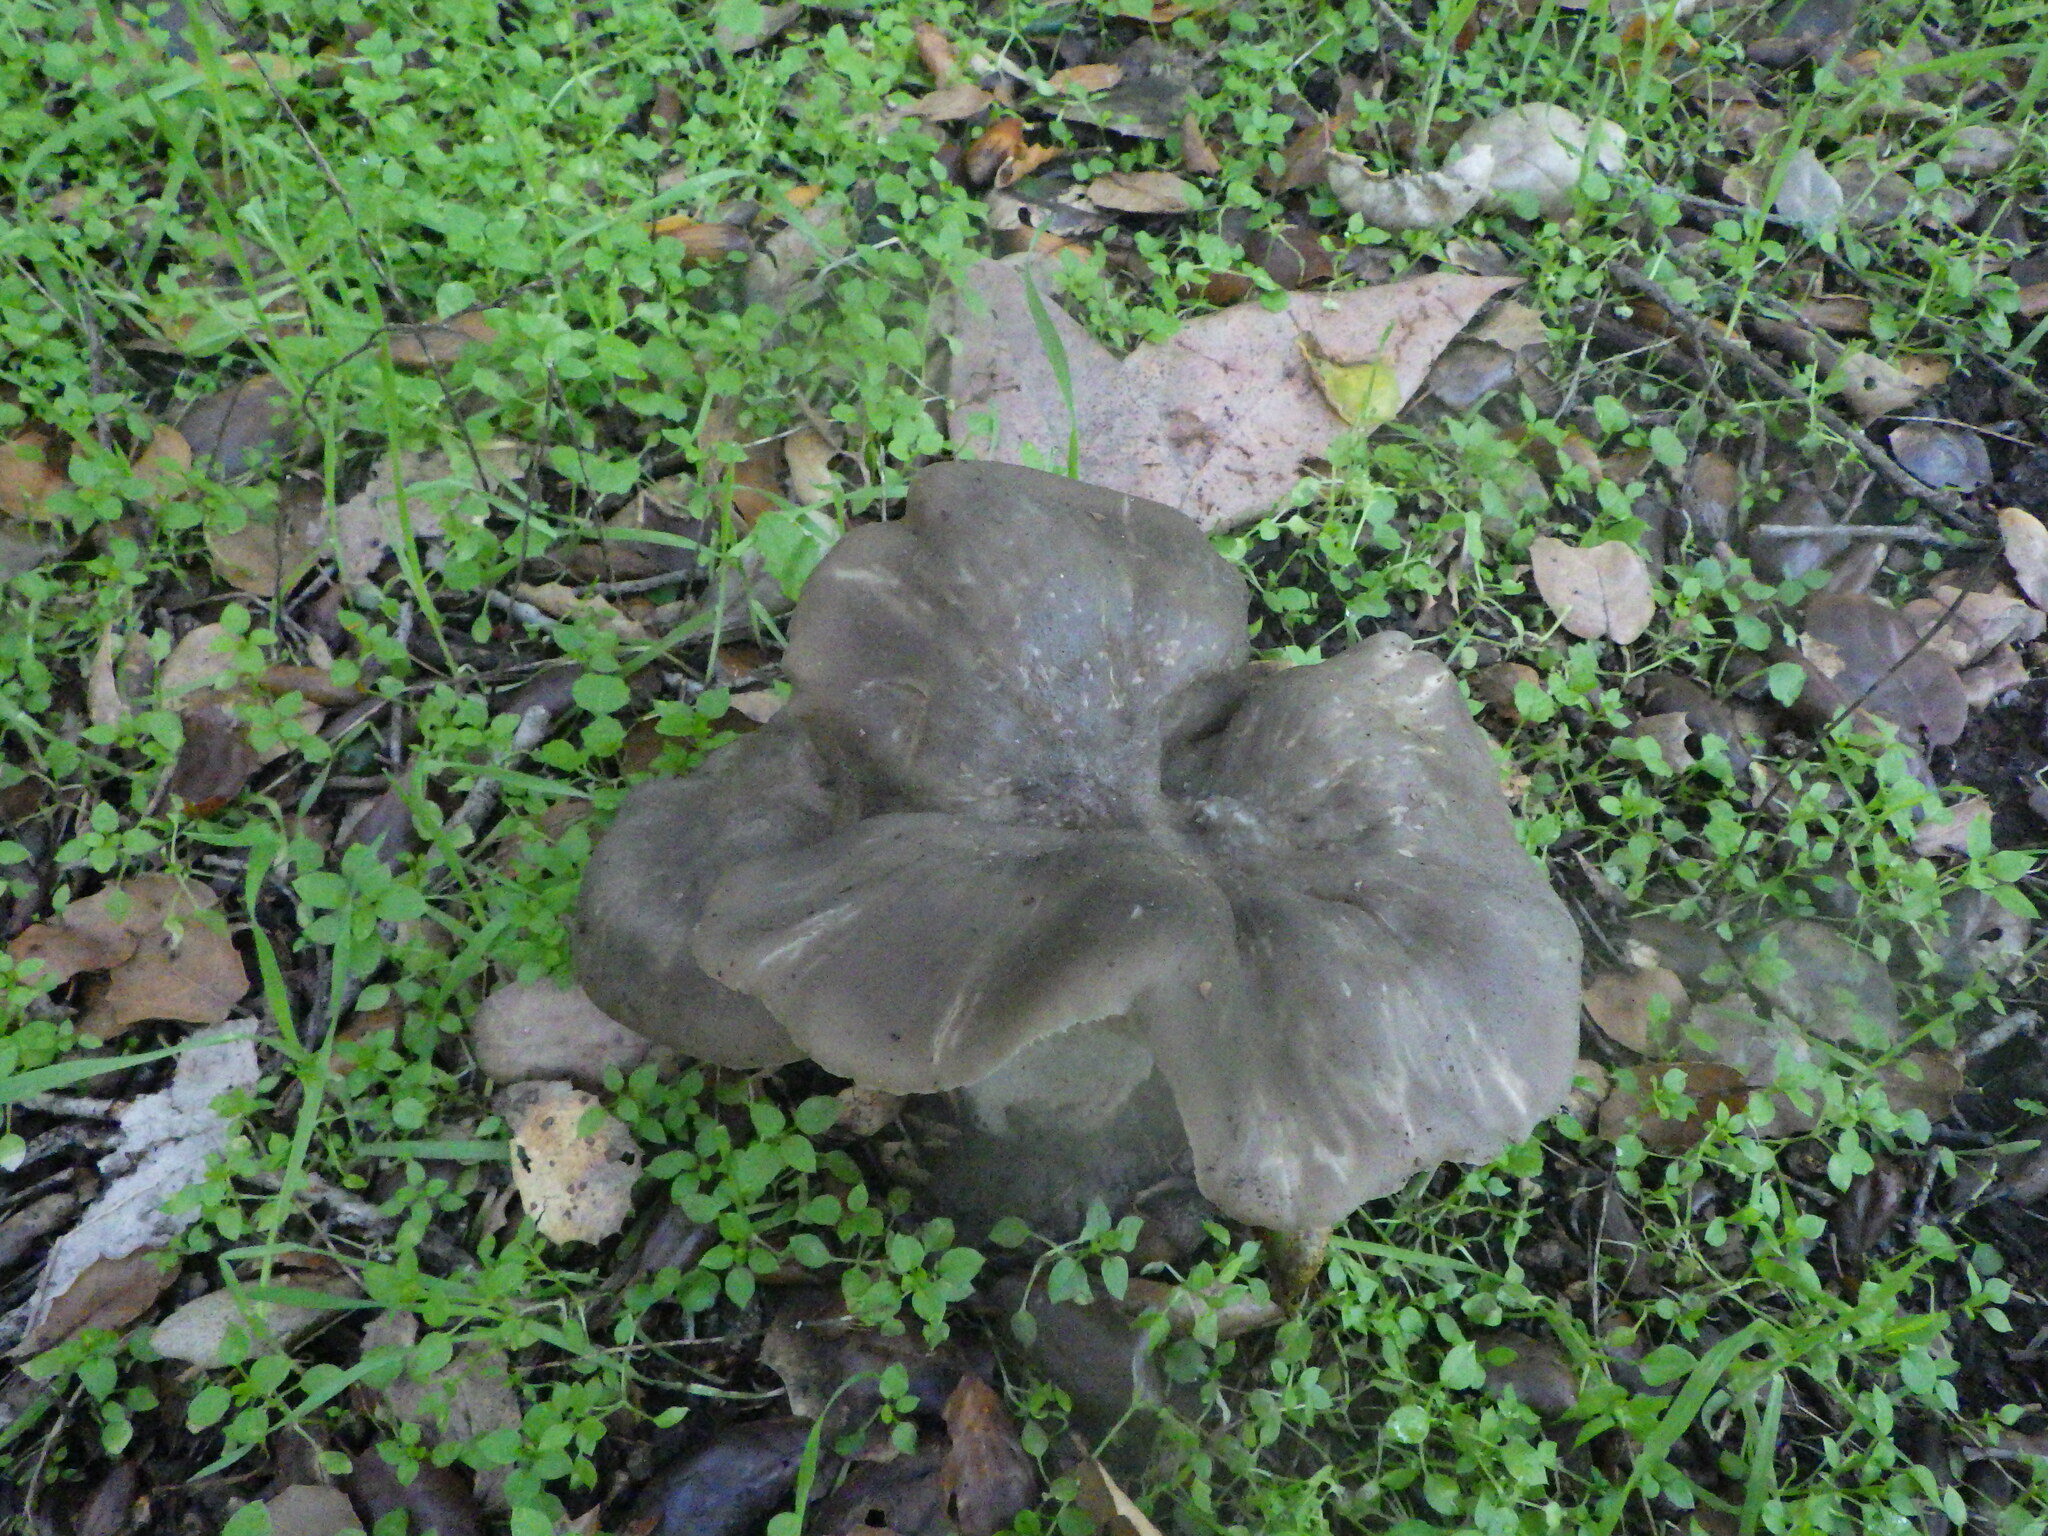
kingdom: Fungi
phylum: Basidiomycota
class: Agaricomycetes
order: Agaricales
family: Entolomataceae
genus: Entoloma
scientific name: Entoloma ferruginans
